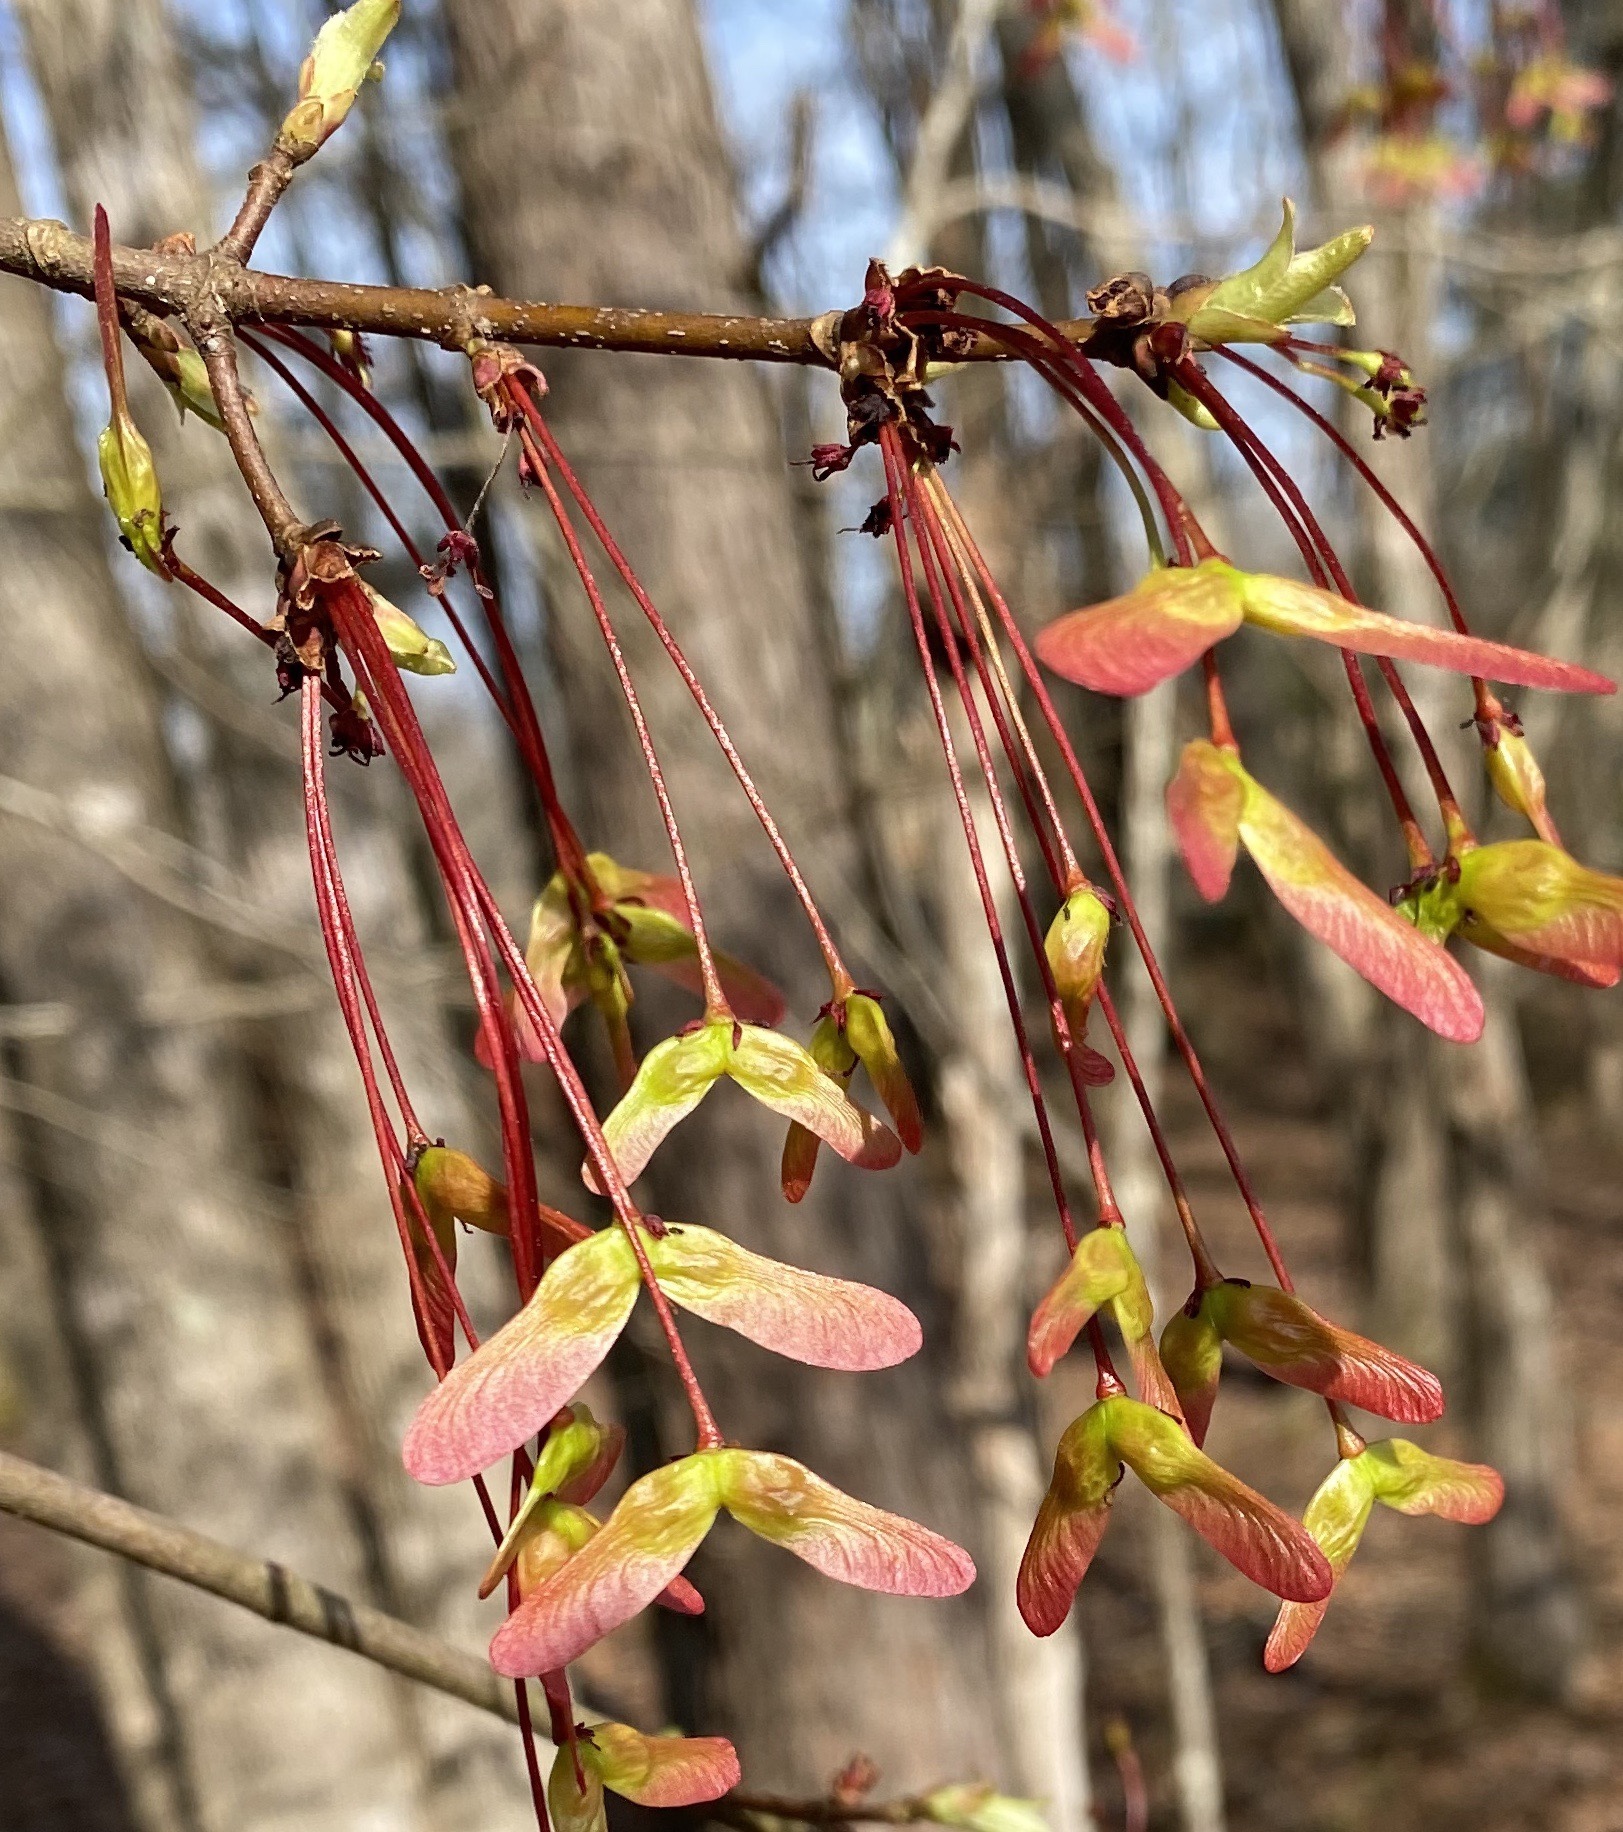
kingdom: Plantae
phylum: Tracheophyta
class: Magnoliopsida
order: Sapindales
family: Sapindaceae
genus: Acer
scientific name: Acer rubrum
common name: Red maple
